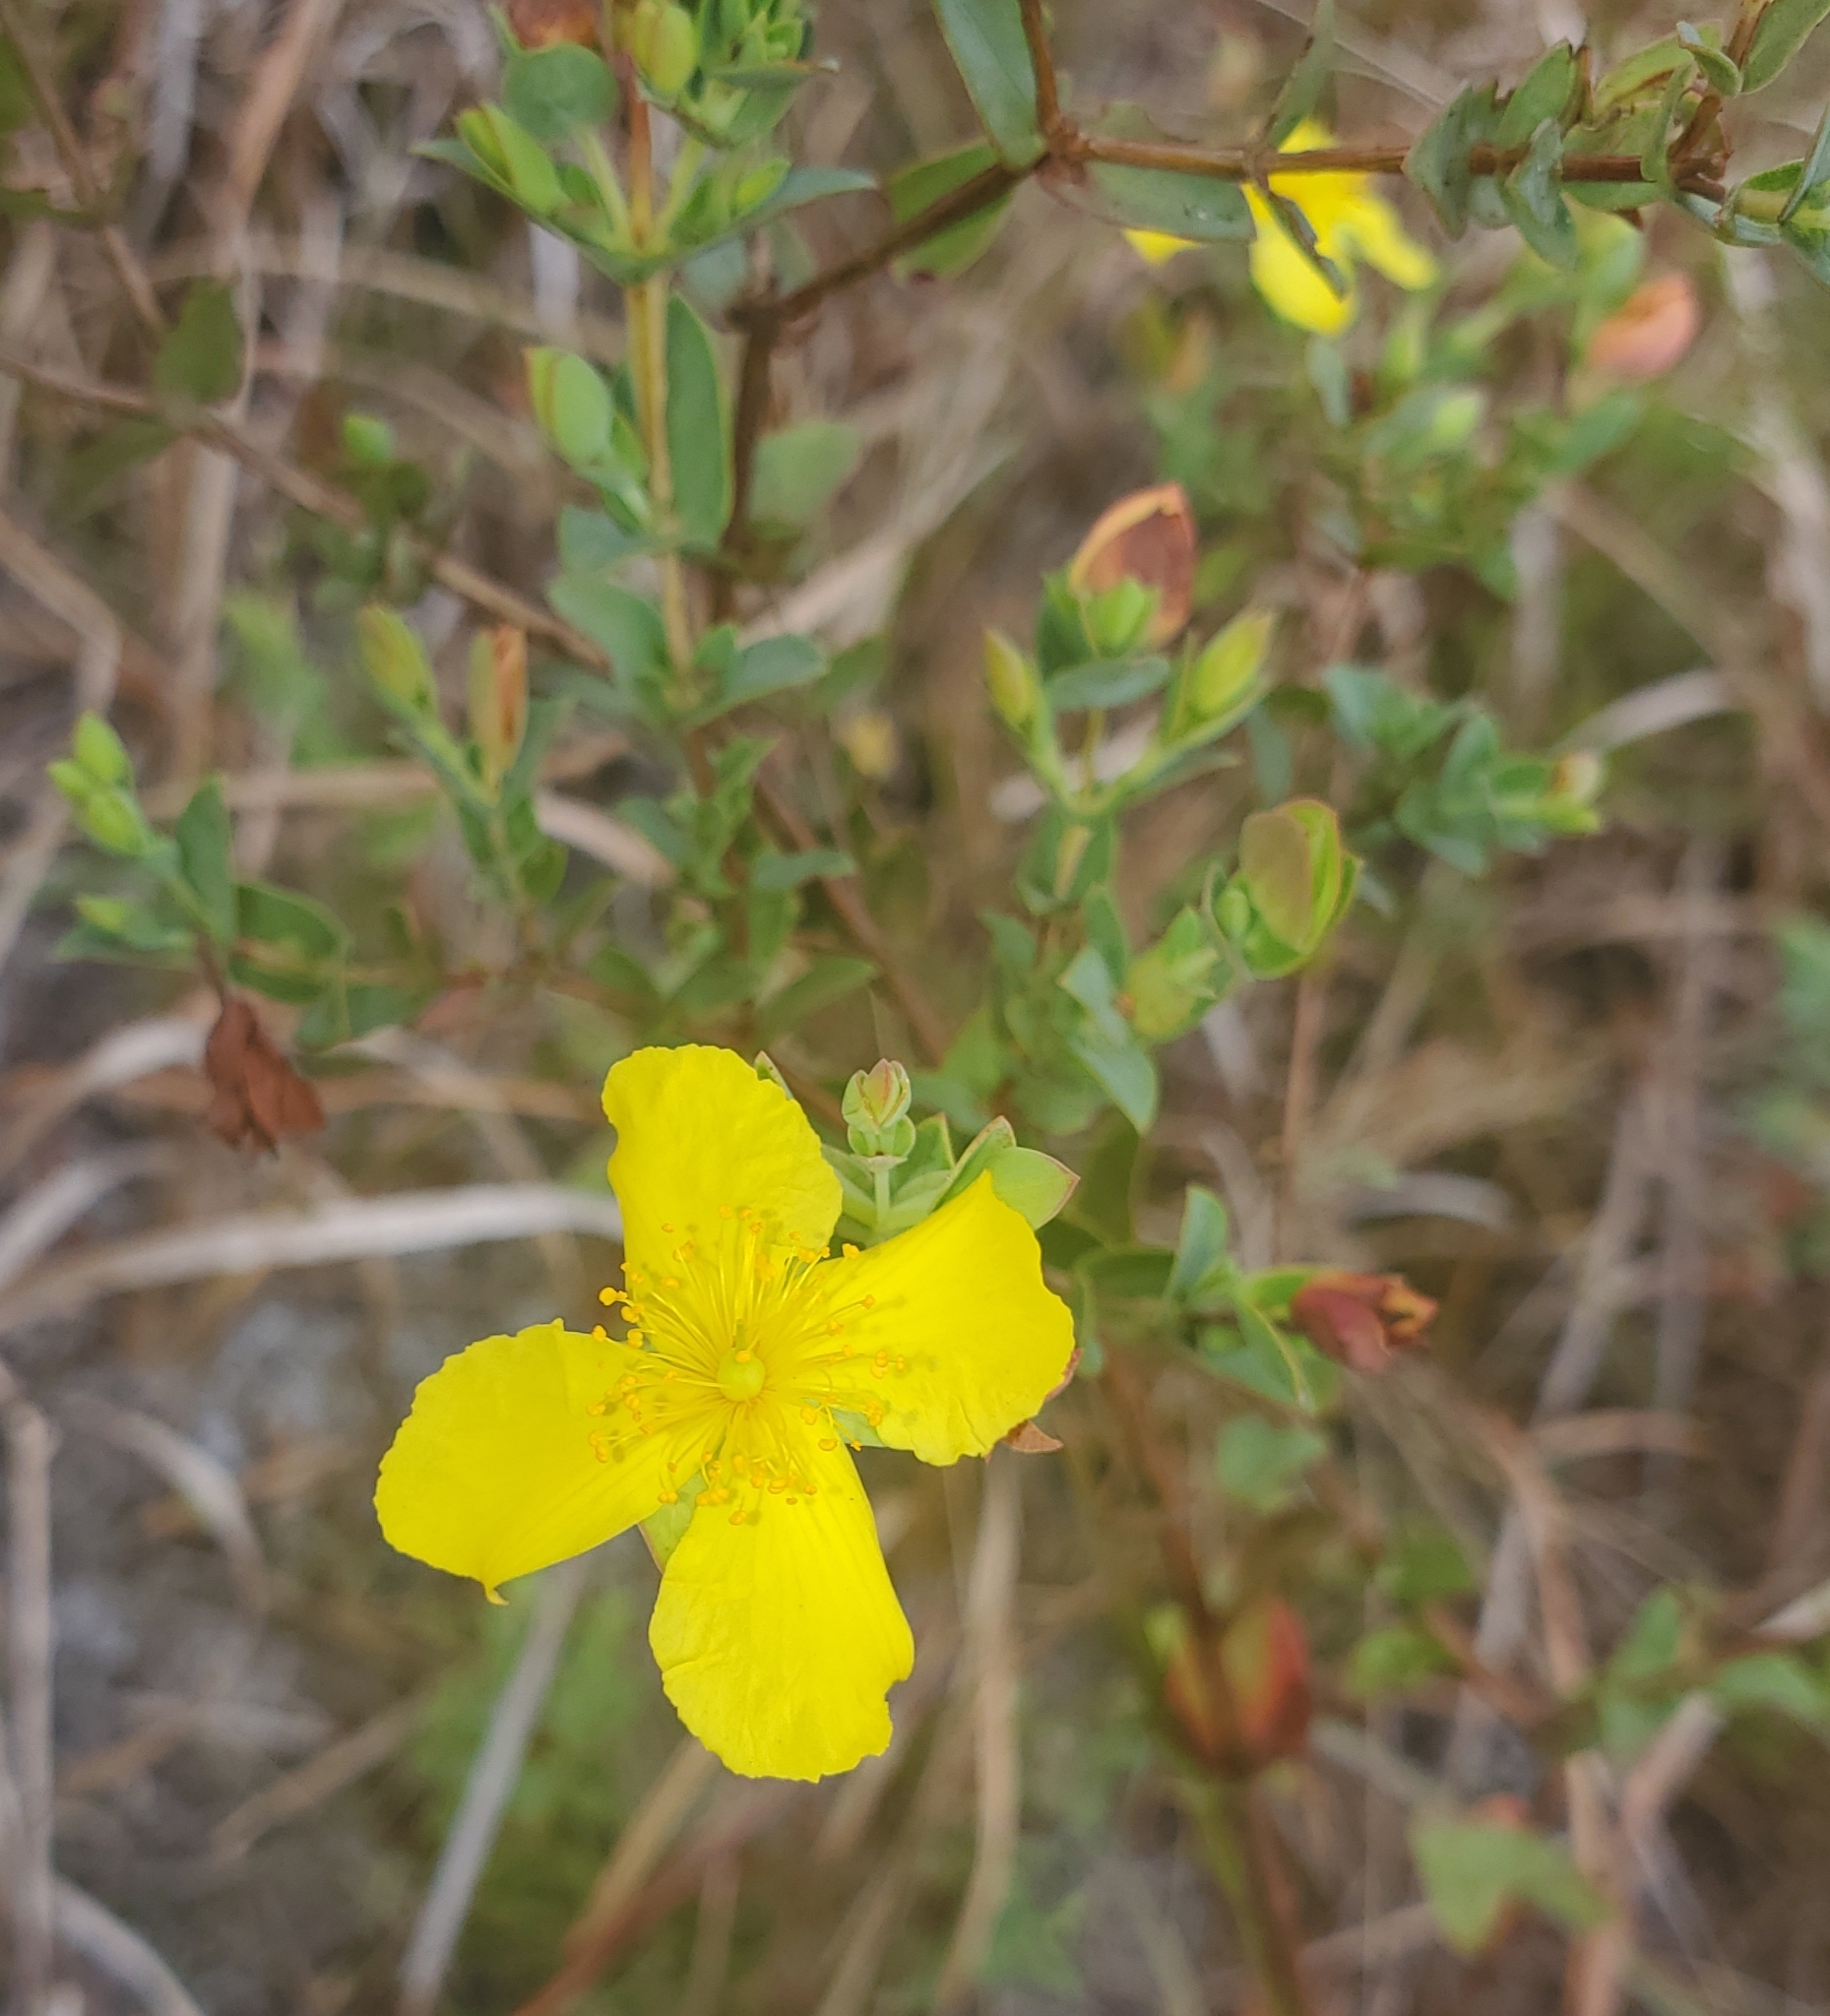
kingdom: Plantae
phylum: Tracheophyta
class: Magnoliopsida
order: Malpighiales
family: Hypericaceae
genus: Hypericum
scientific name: Hypericum tetrapetalum
